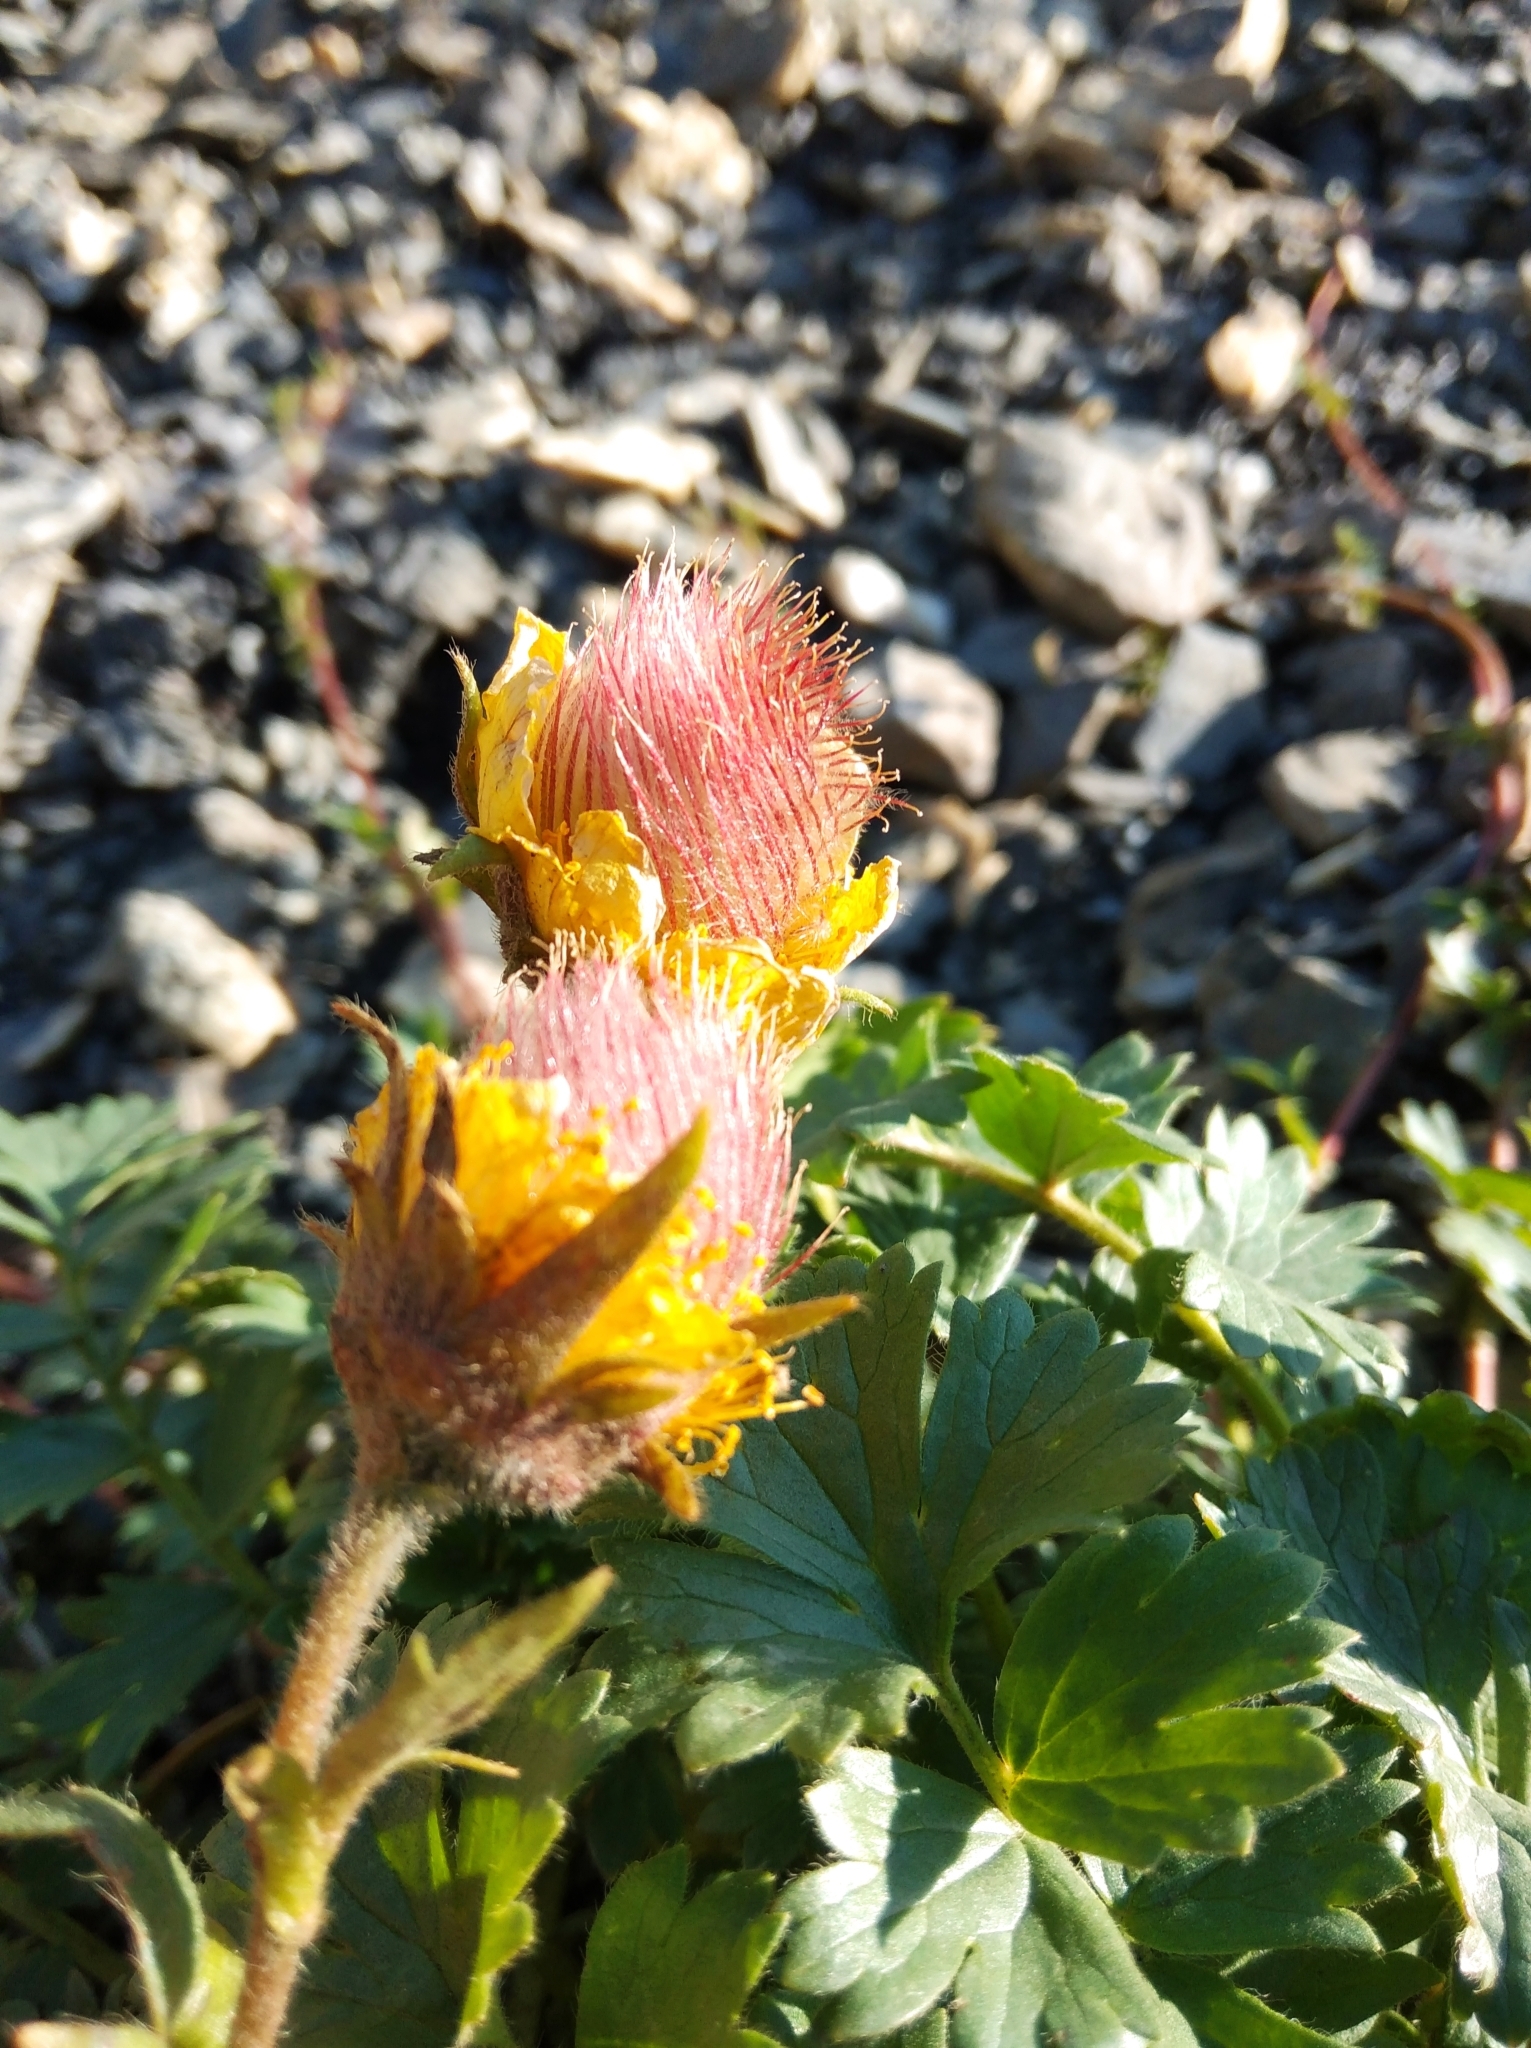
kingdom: Plantae
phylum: Tracheophyta
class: Magnoliopsida
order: Rosales
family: Rosaceae
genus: Geum
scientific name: Geum reptans
